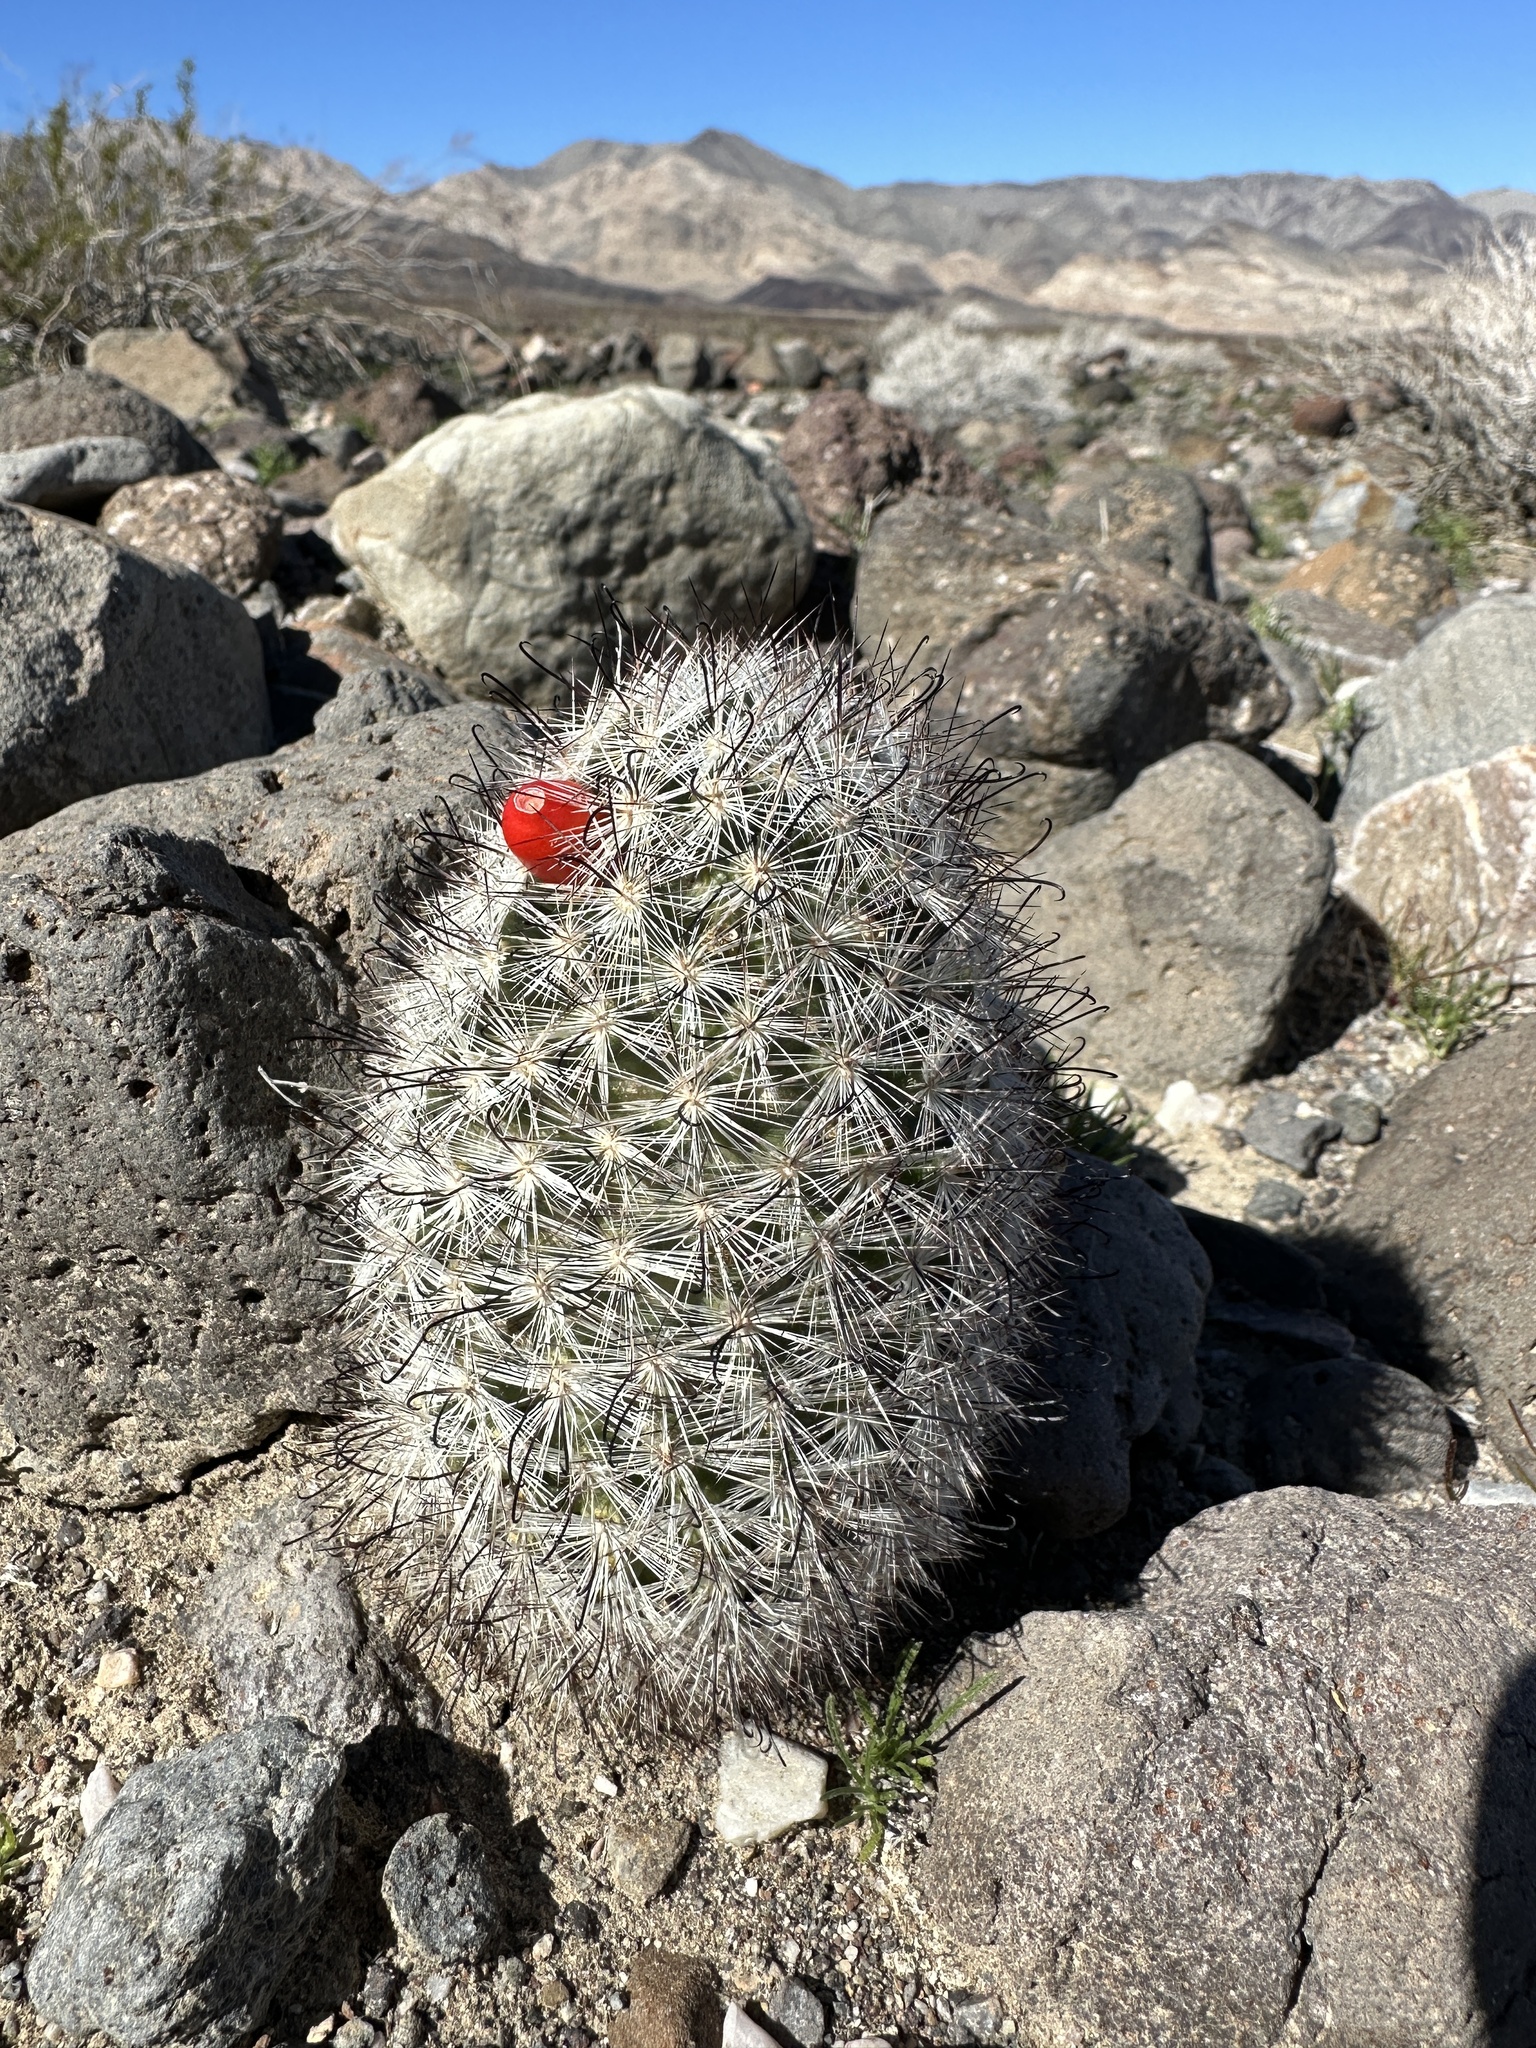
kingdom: Plantae
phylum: Tracheophyta
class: Magnoliopsida
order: Caryophyllales
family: Cactaceae
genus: Cochemiea
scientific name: Cochemiea tetrancistra
